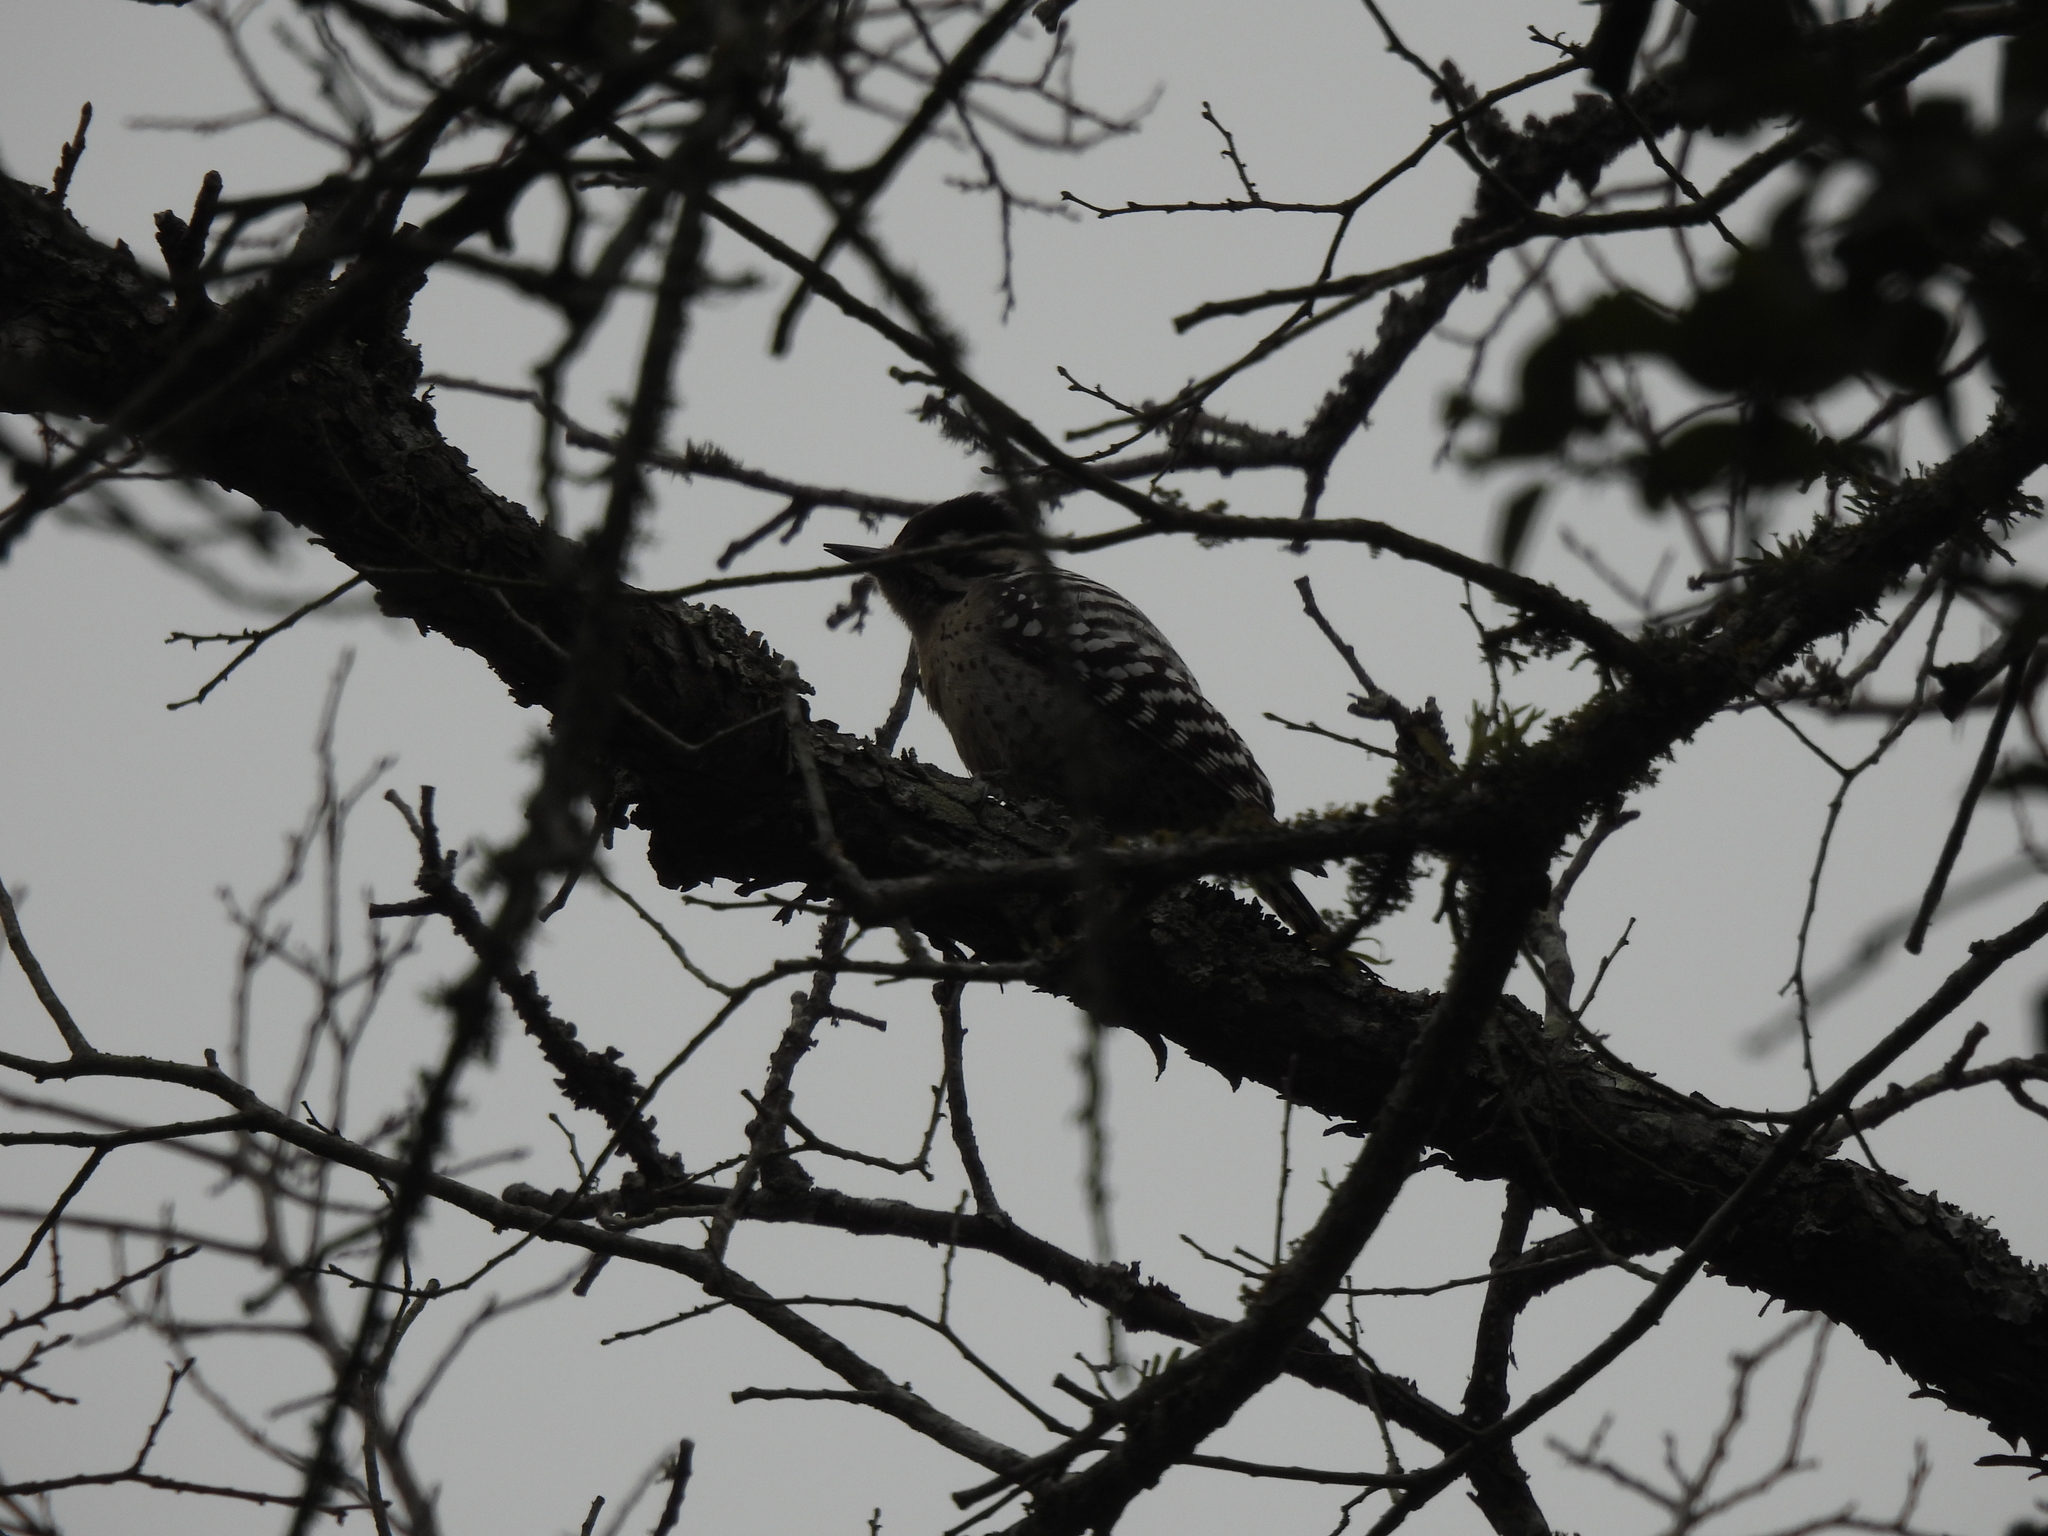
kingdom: Animalia
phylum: Chordata
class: Aves
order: Piciformes
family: Picidae
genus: Dryobates
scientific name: Dryobates scalaris
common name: Ladder-backed woodpecker
